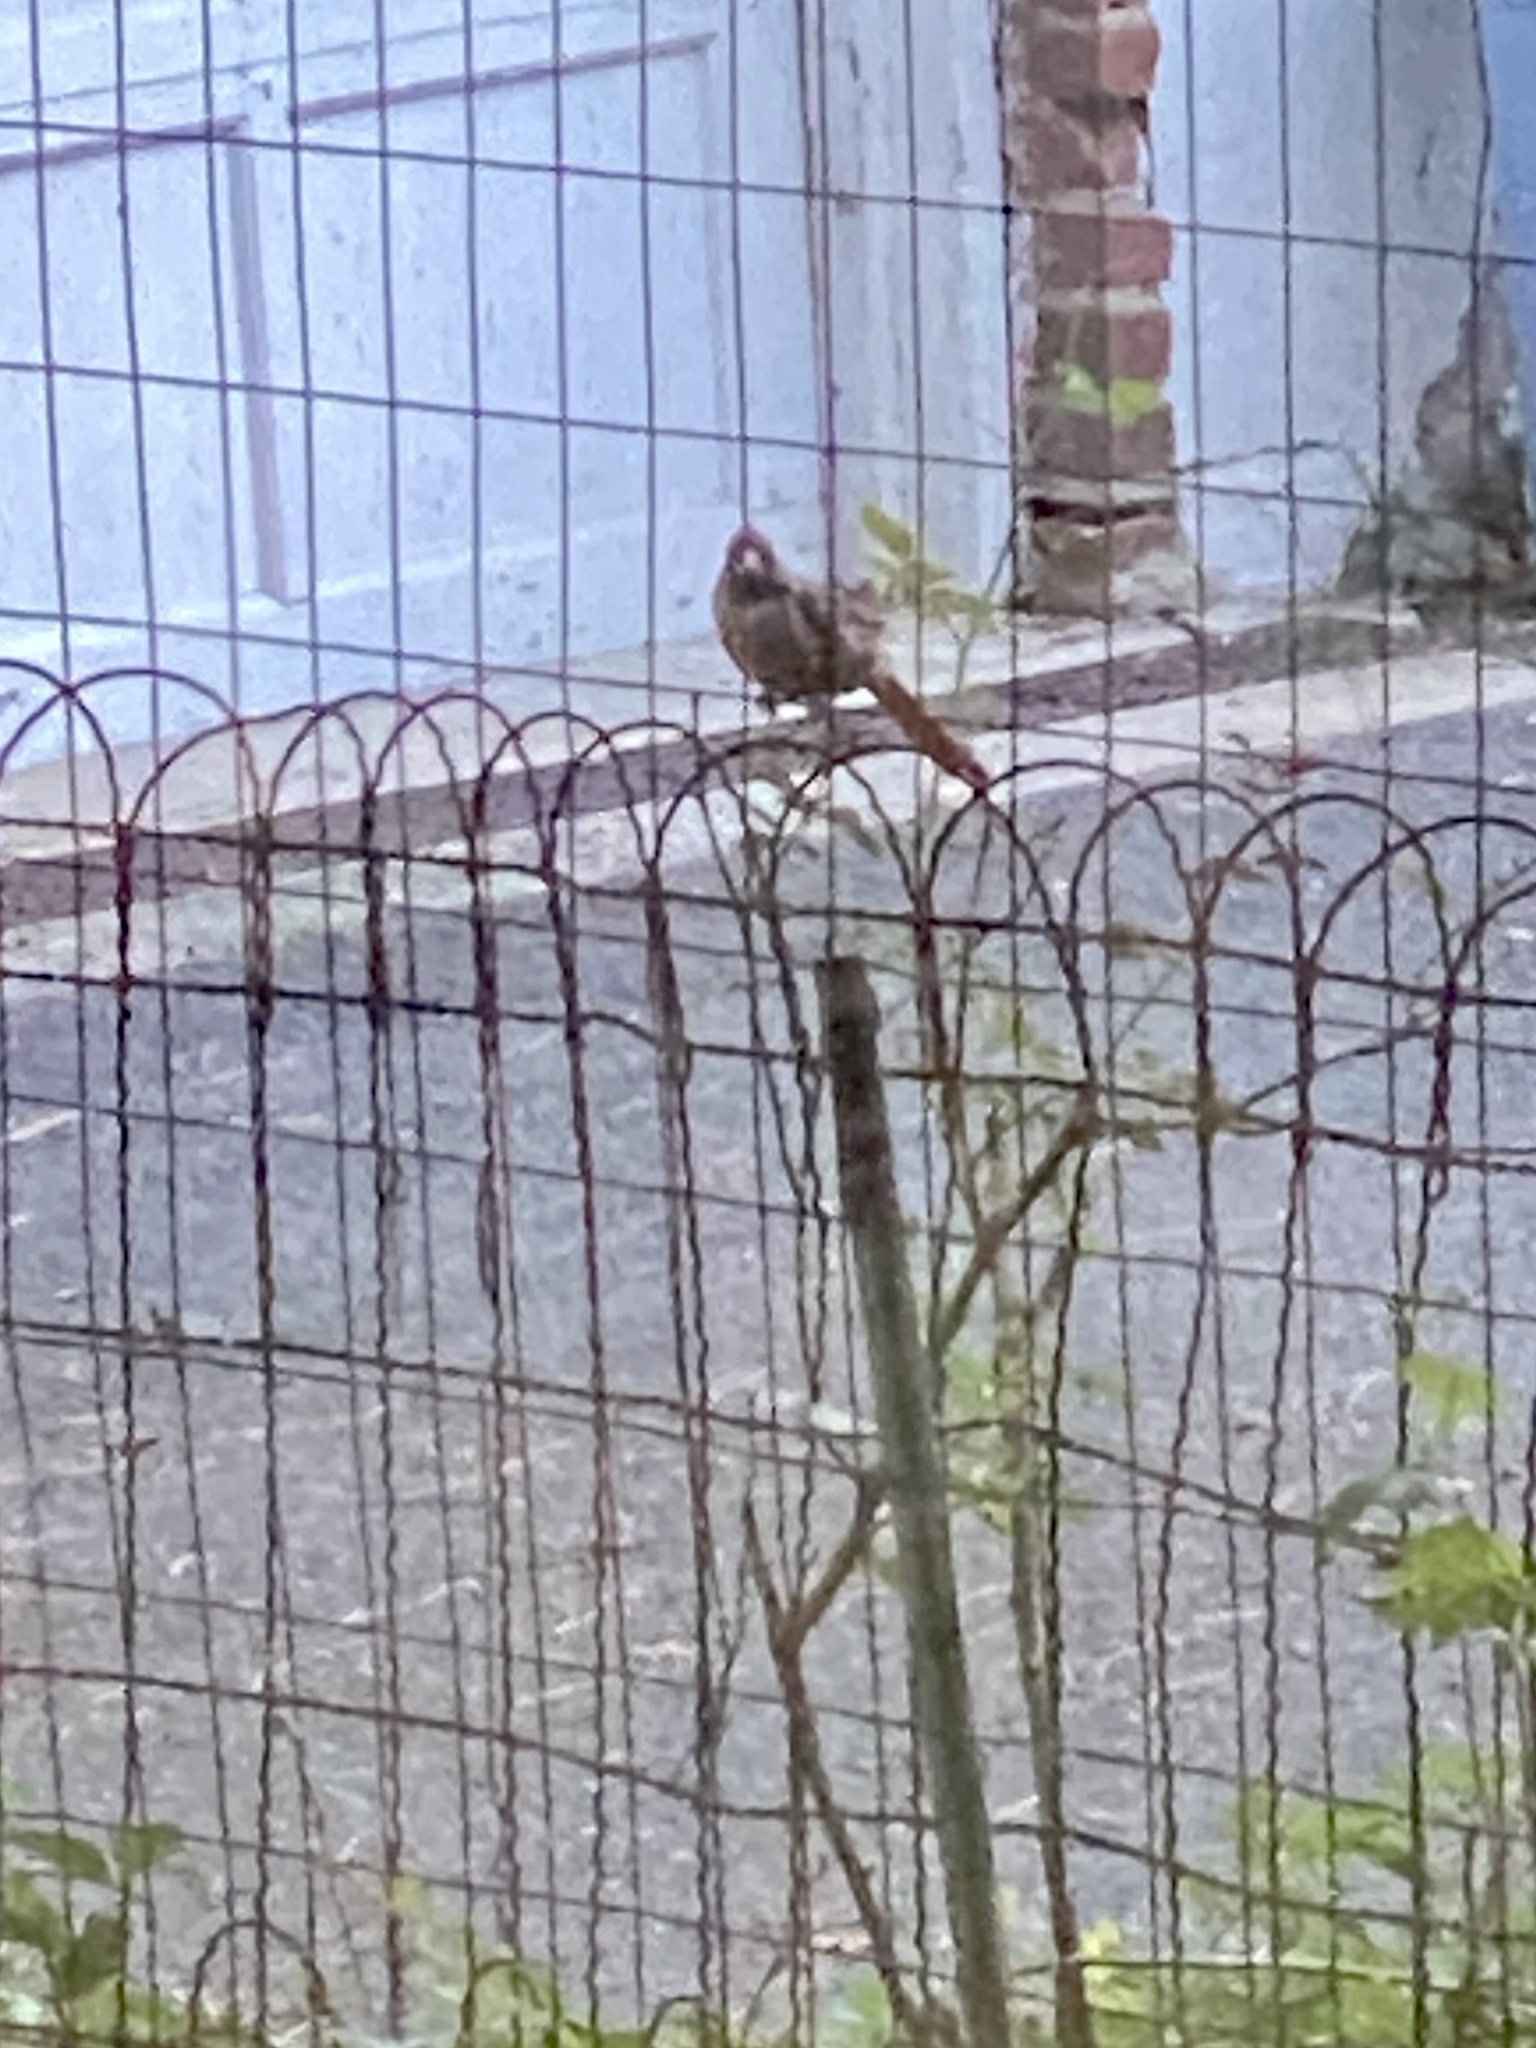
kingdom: Animalia
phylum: Chordata
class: Aves
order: Passeriformes
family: Cardinalidae
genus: Cardinalis
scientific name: Cardinalis cardinalis
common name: Northern cardinal
